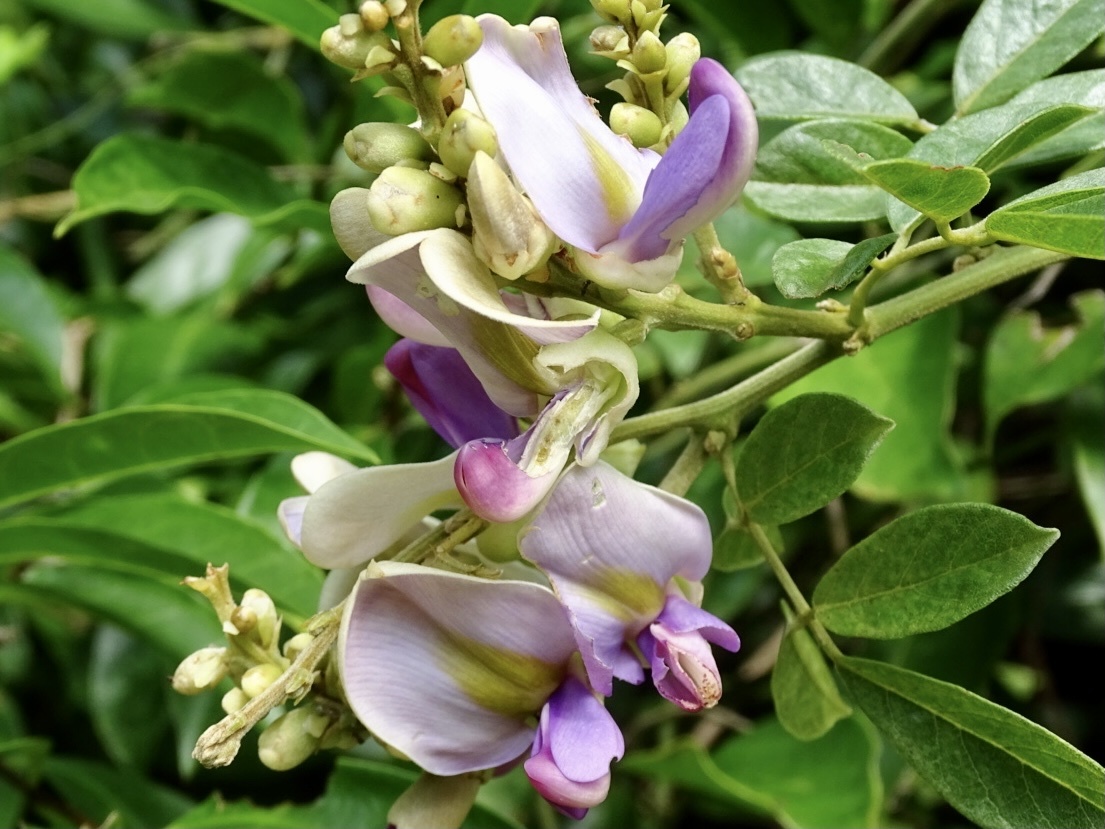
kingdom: Plantae
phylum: Tracheophyta
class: Magnoliopsida
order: Fabales
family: Fabaceae
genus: Callerya
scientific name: Callerya nitida
